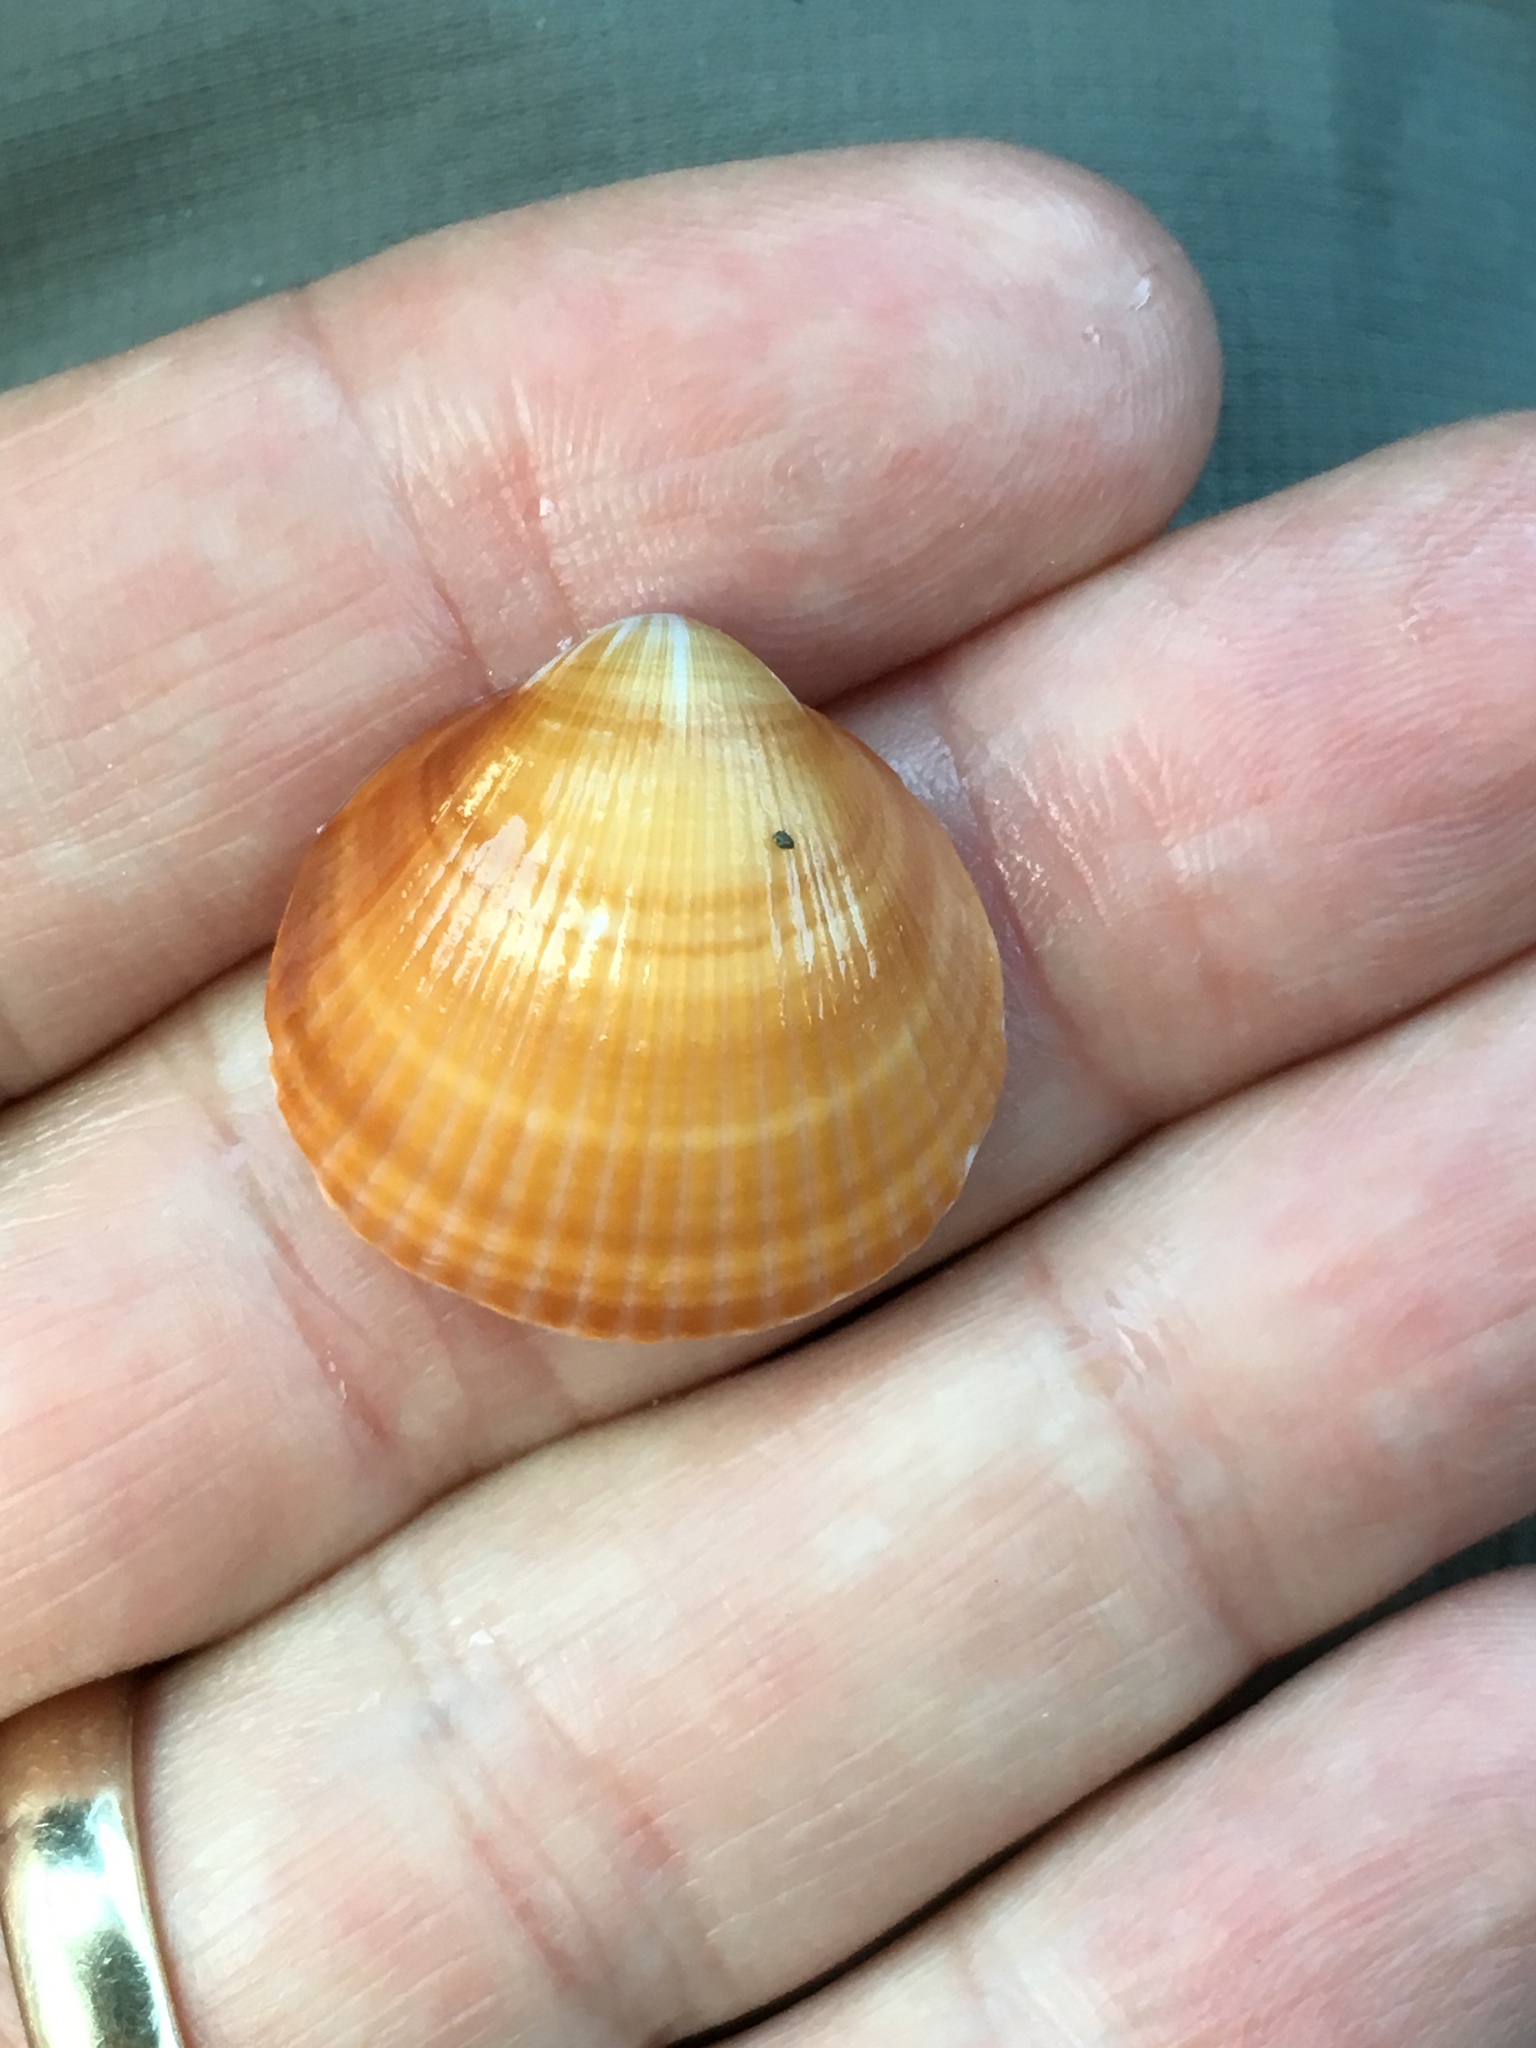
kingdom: Animalia
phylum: Mollusca
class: Bivalvia
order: Arcida
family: Glycymerididae
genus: Glycymeris
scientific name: Glycymeris spectralis
